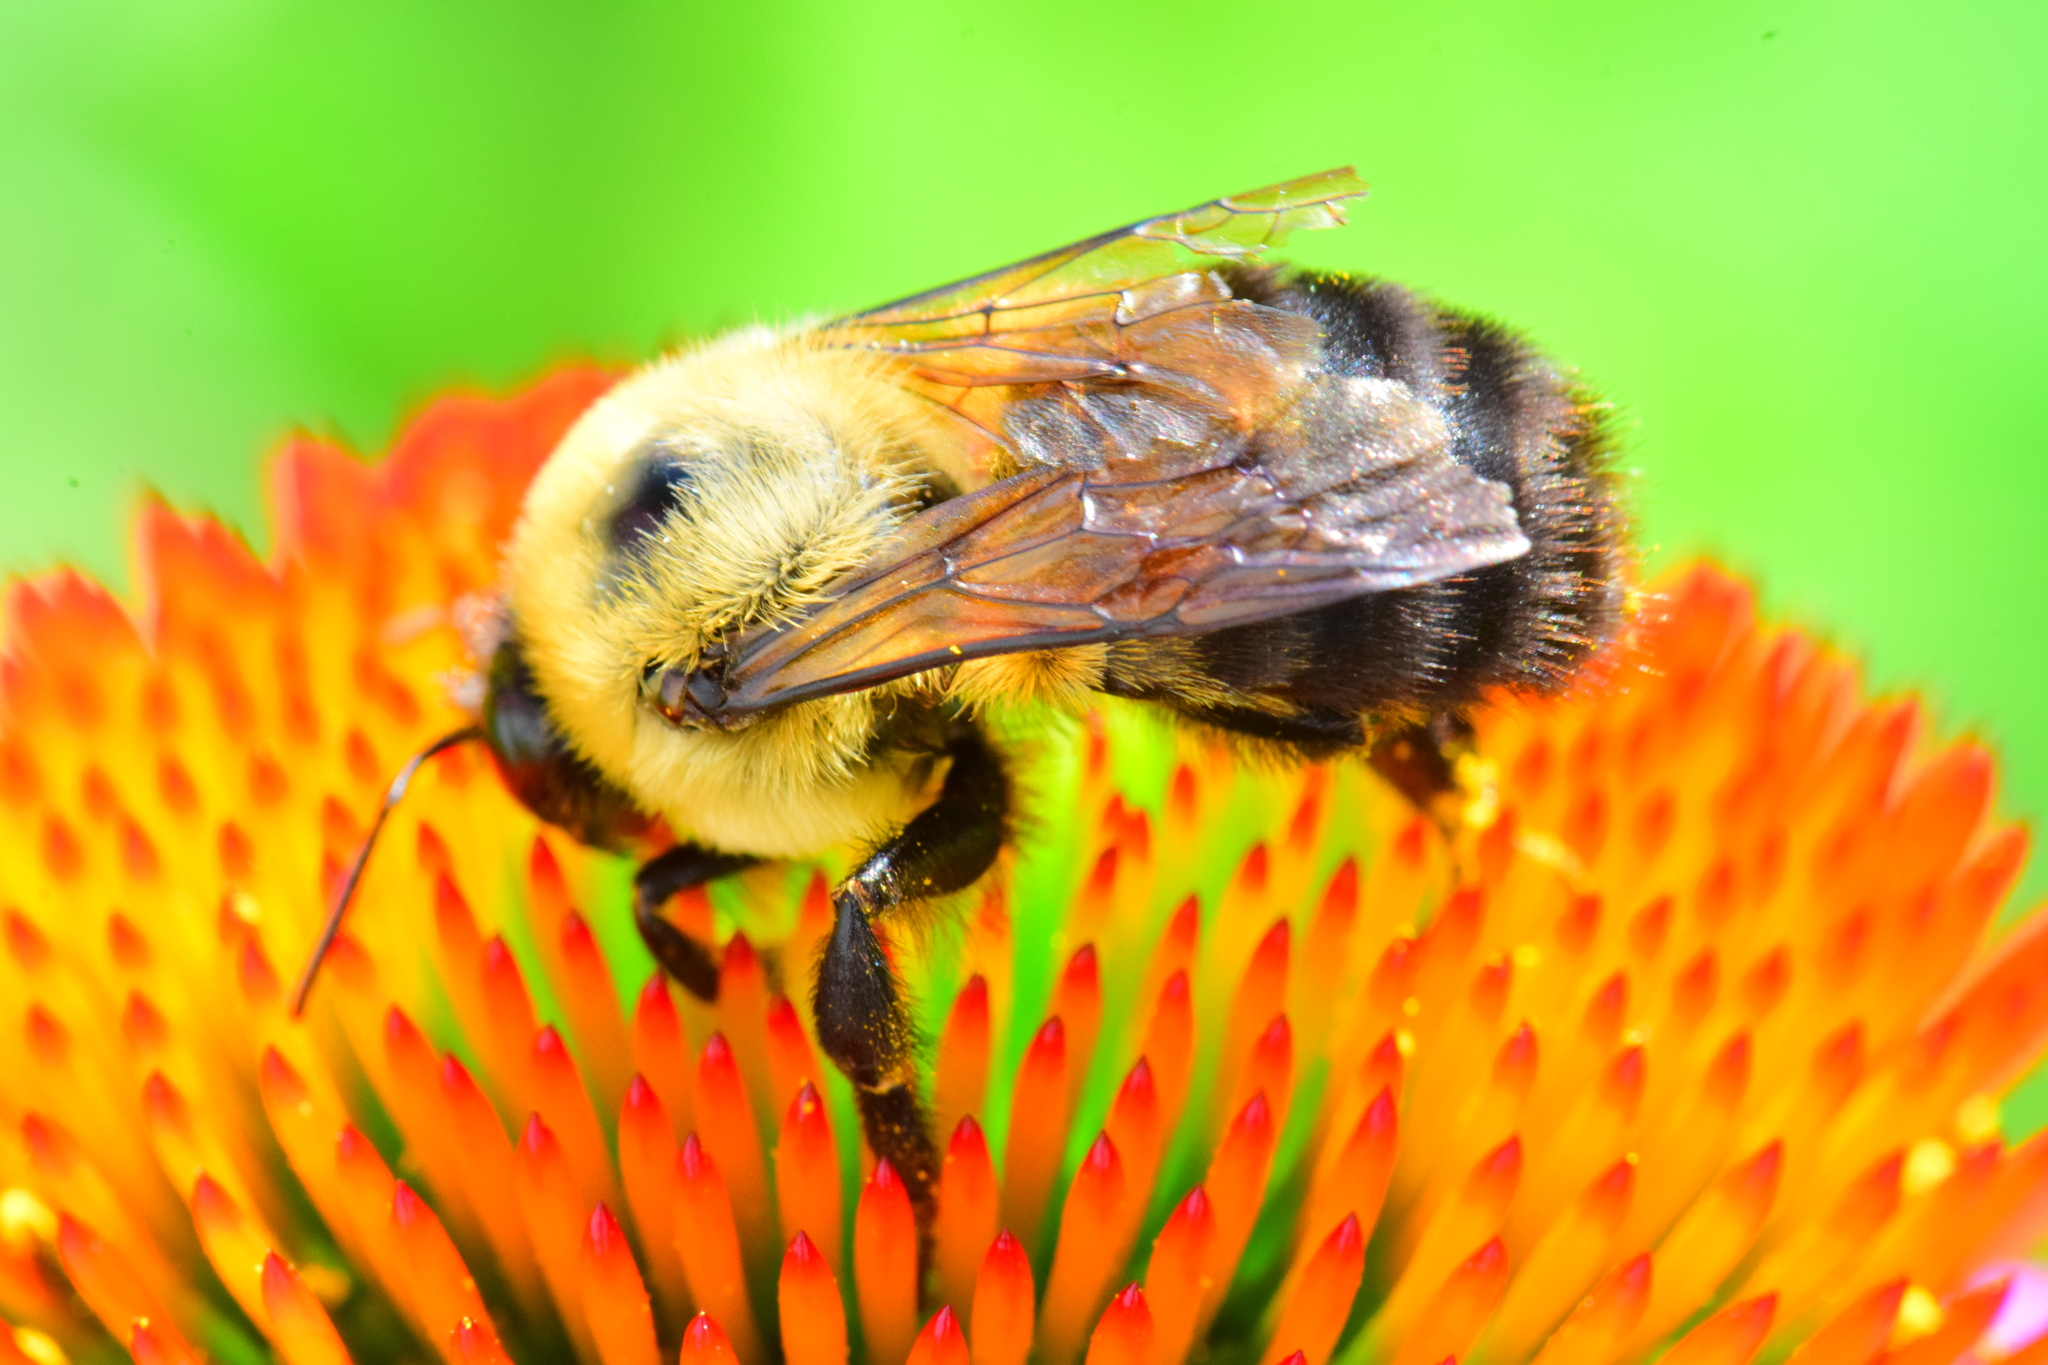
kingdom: Animalia
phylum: Arthropoda
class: Insecta
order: Hymenoptera
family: Apidae
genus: Bombus
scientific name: Bombus griseocollis
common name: Brown-belted bumble bee
